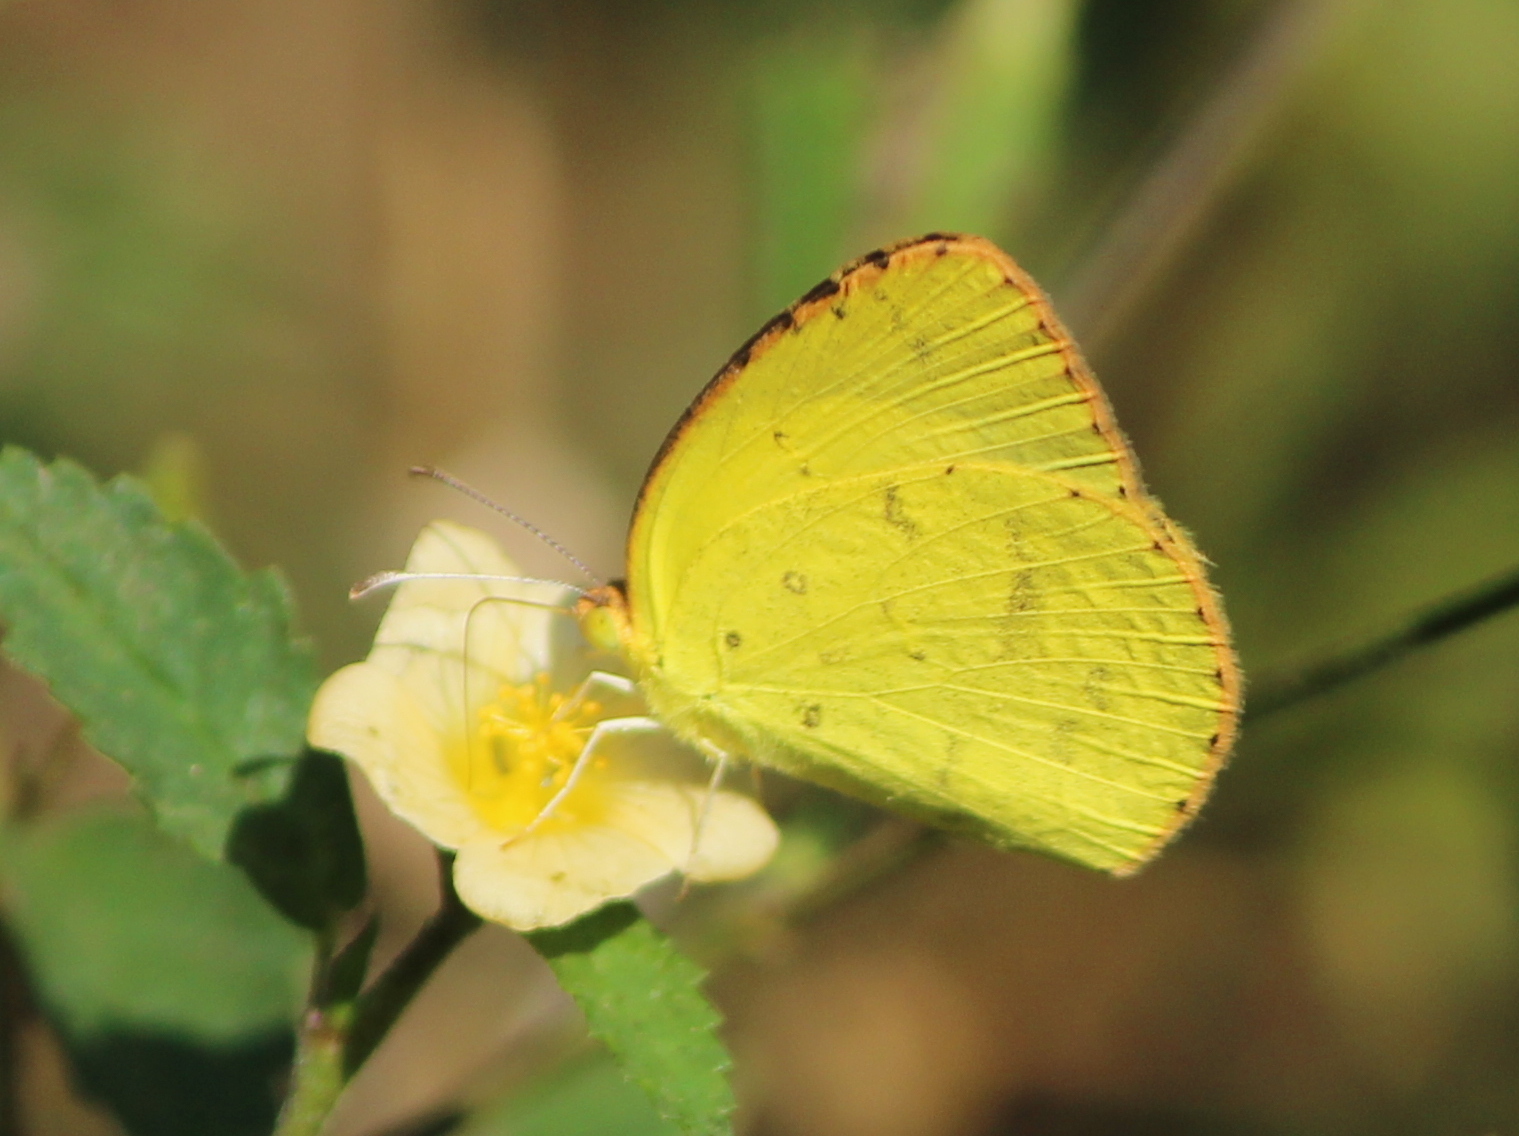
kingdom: Animalia
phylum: Arthropoda
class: Insecta
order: Lepidoptera
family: Pieridae
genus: Eurema
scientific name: Eurema brigitta
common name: Small grass yellow
